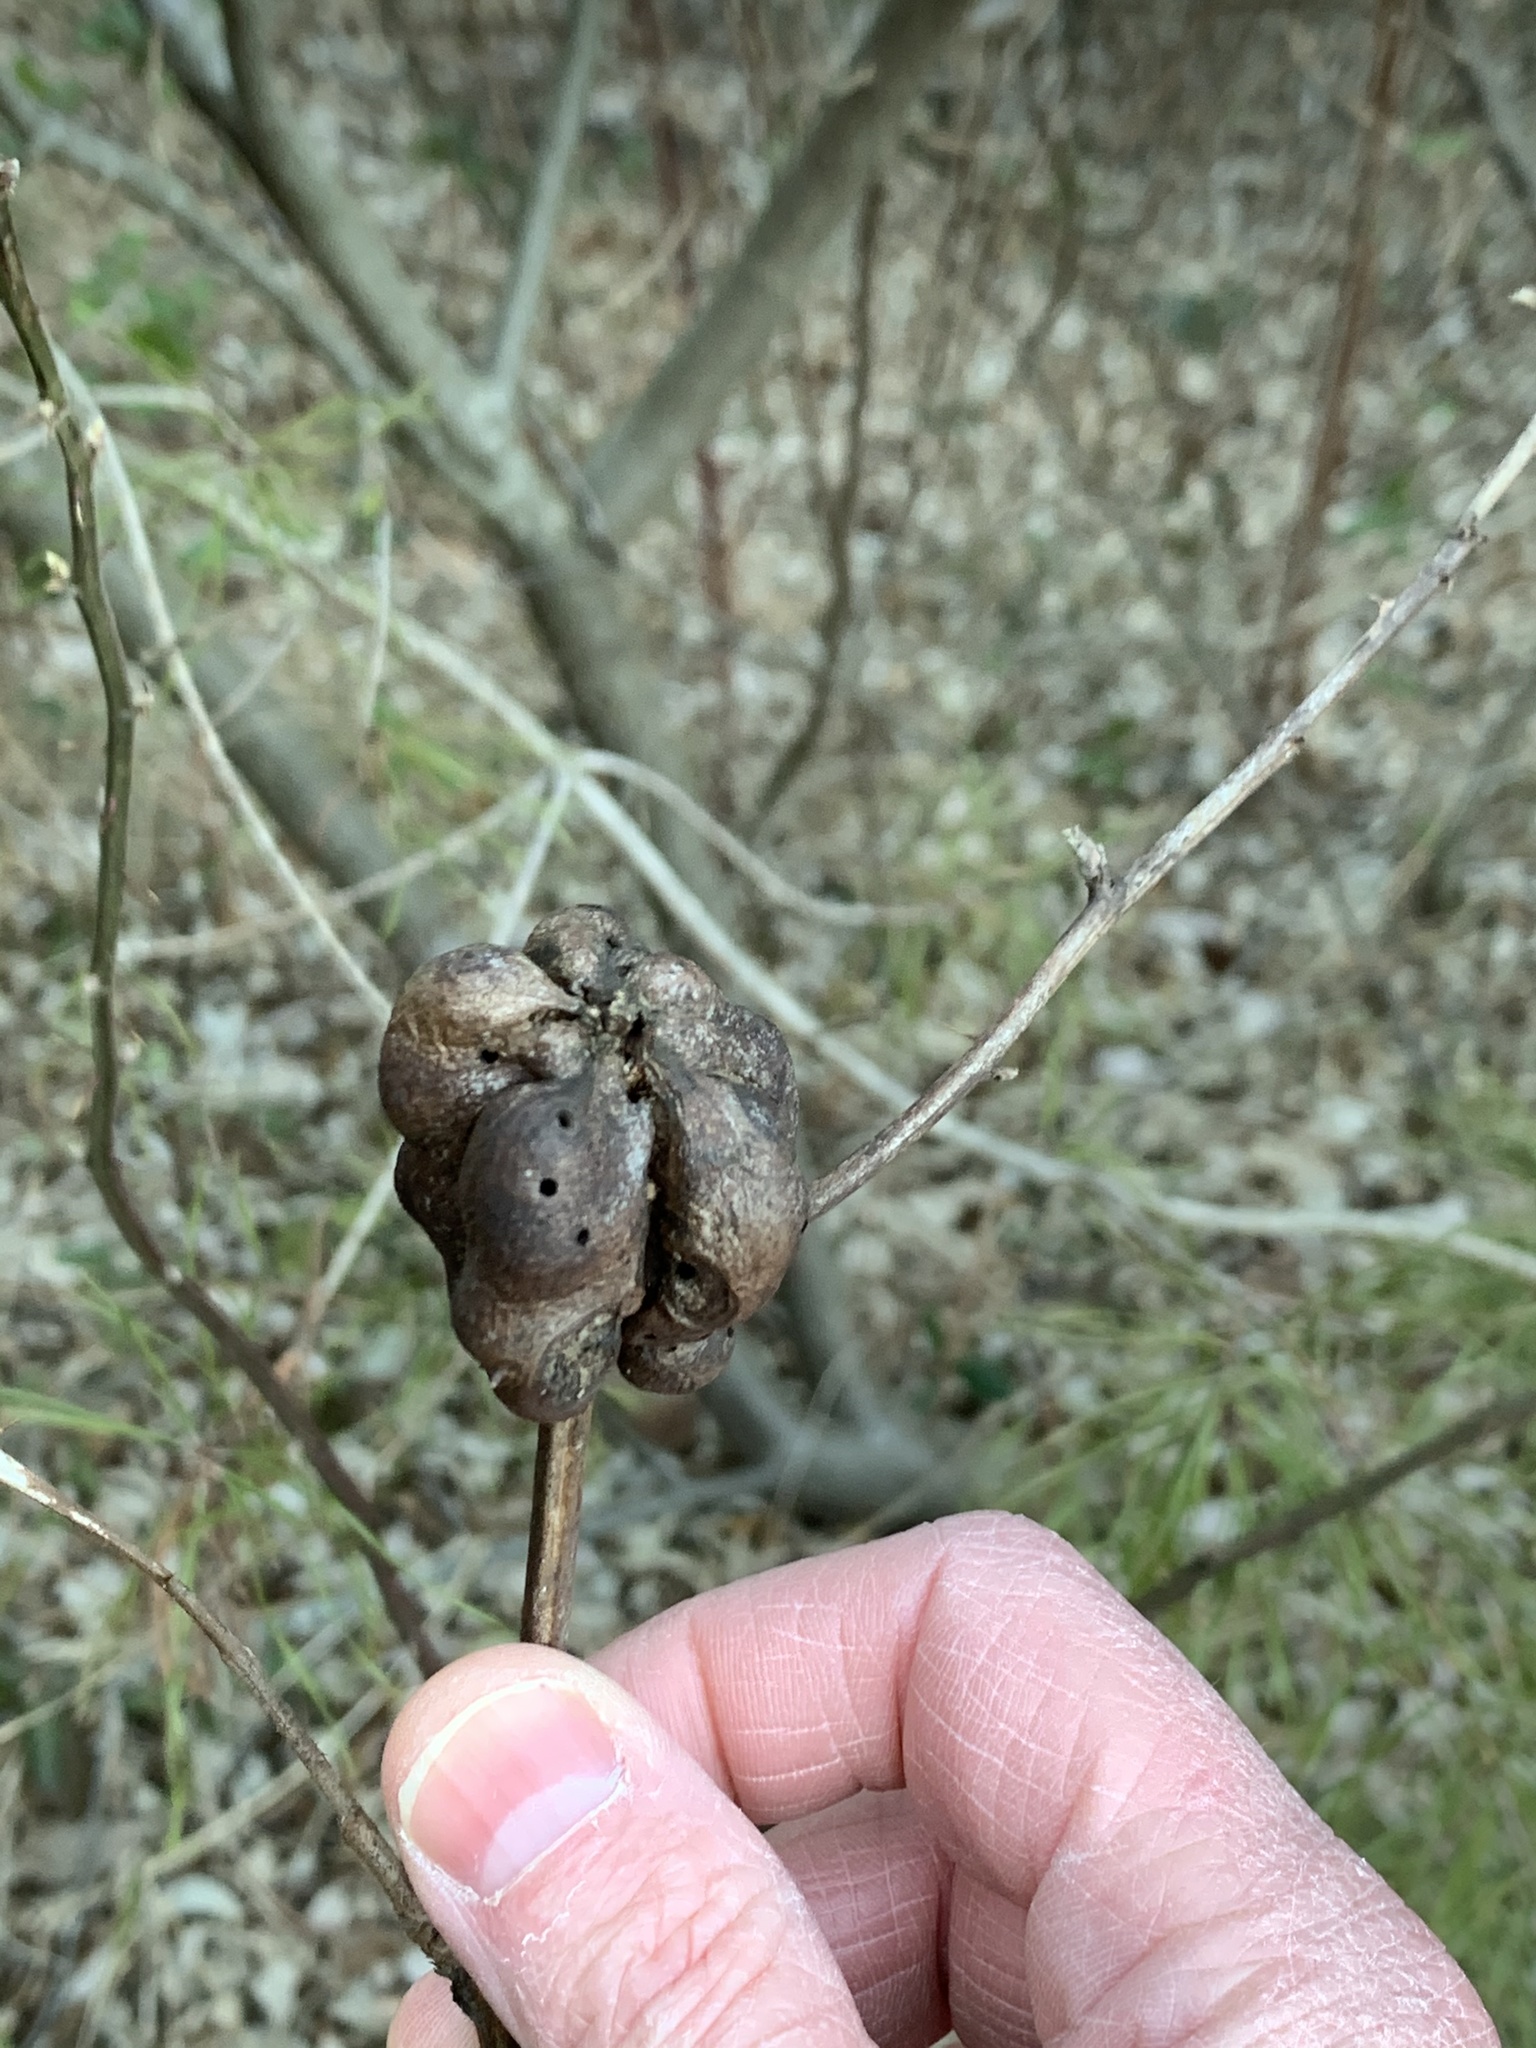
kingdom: Animalia
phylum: Arthropoda
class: Insecta
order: Hymenoptera
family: Cynipidae
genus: Diastrophus
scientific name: Diastrophus
